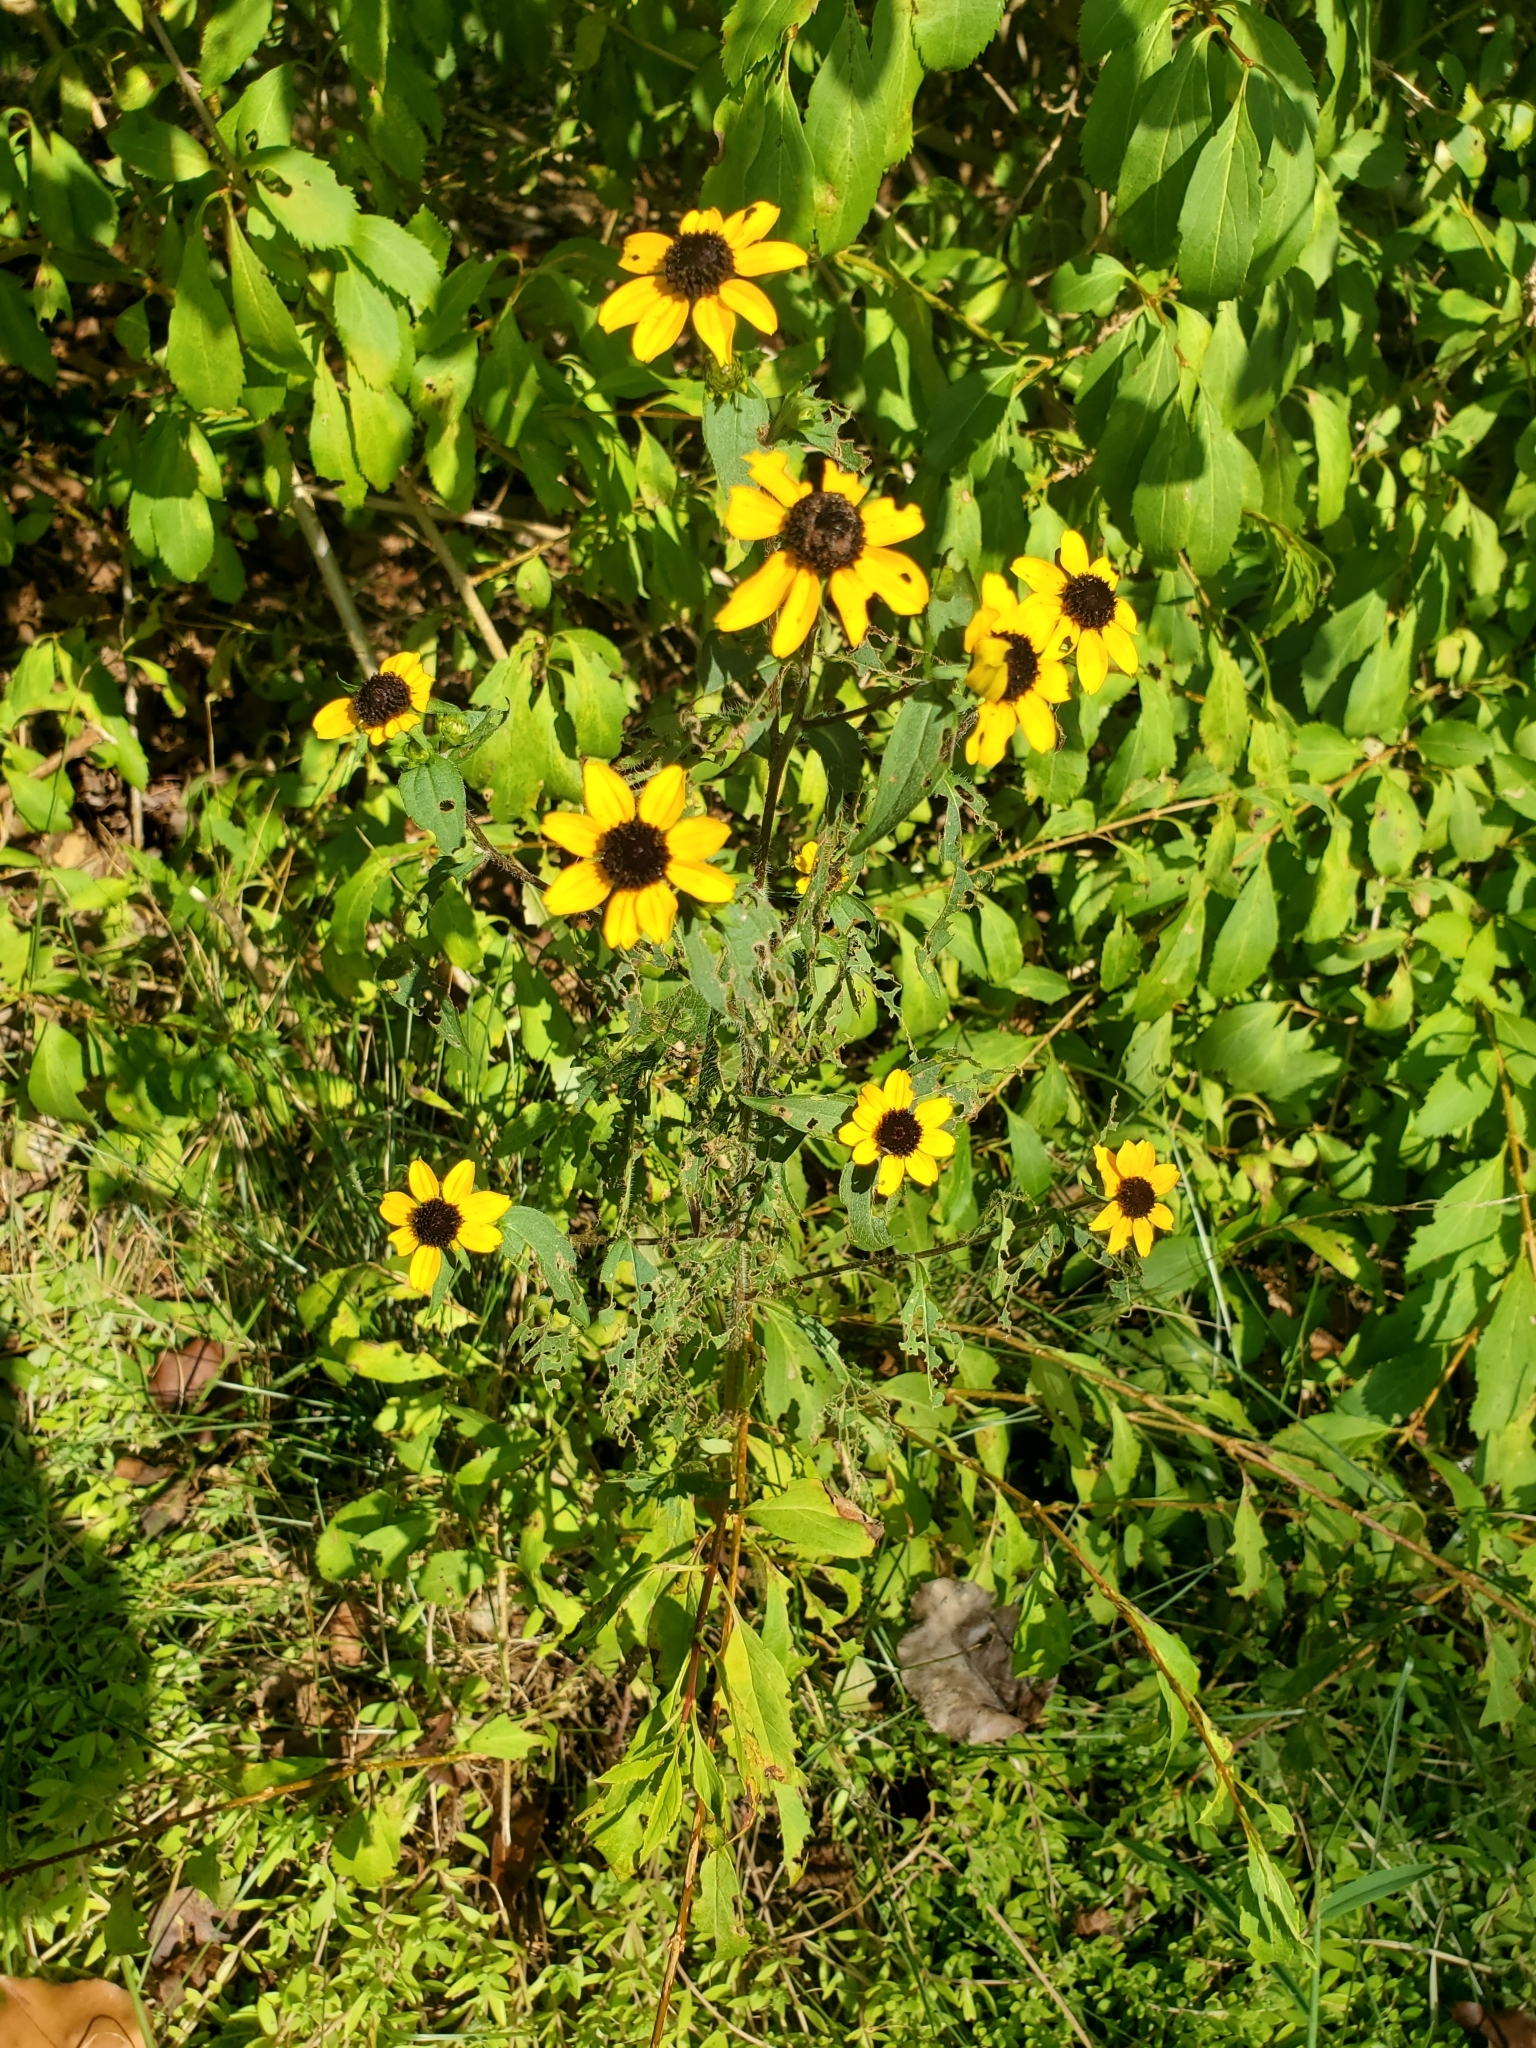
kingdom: Plantae
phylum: Tracheophyta
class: Magnoliopsida
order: Asterales
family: Asteraceae
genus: Rudbeckia
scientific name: Rudbeckia triloba
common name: Thin-leaved coneflower
